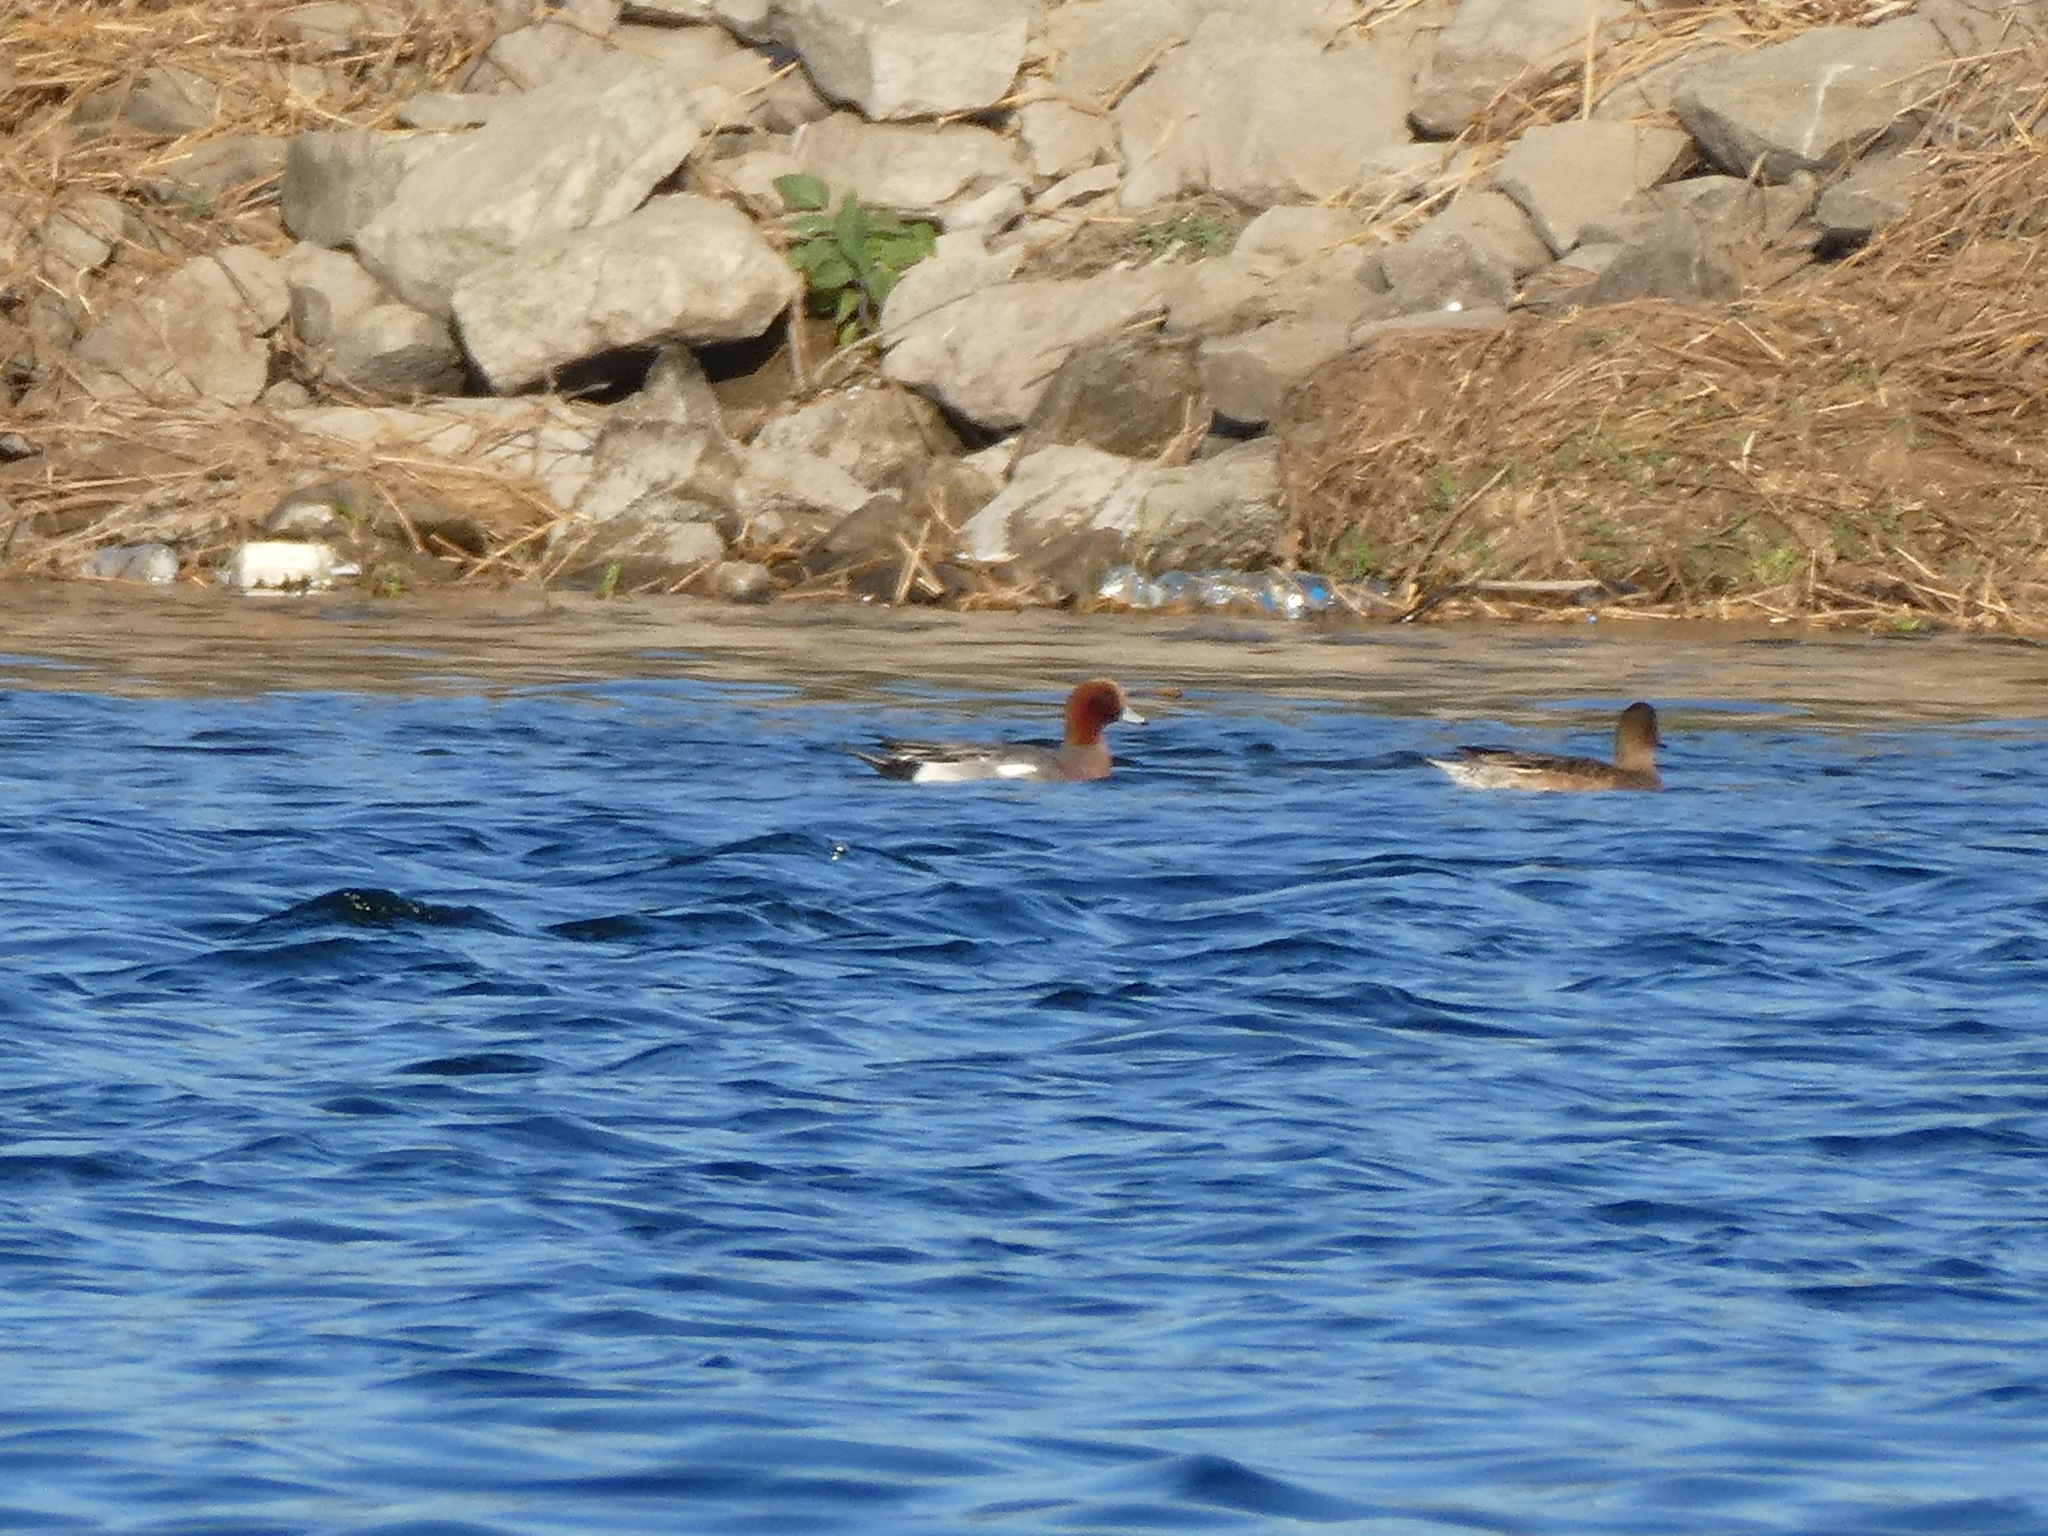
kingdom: Animalia
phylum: Chordata
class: Aves
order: Anseriformes
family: Anatidae
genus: Mareca
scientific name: Mareca penelope
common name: Eurasian wigeon
